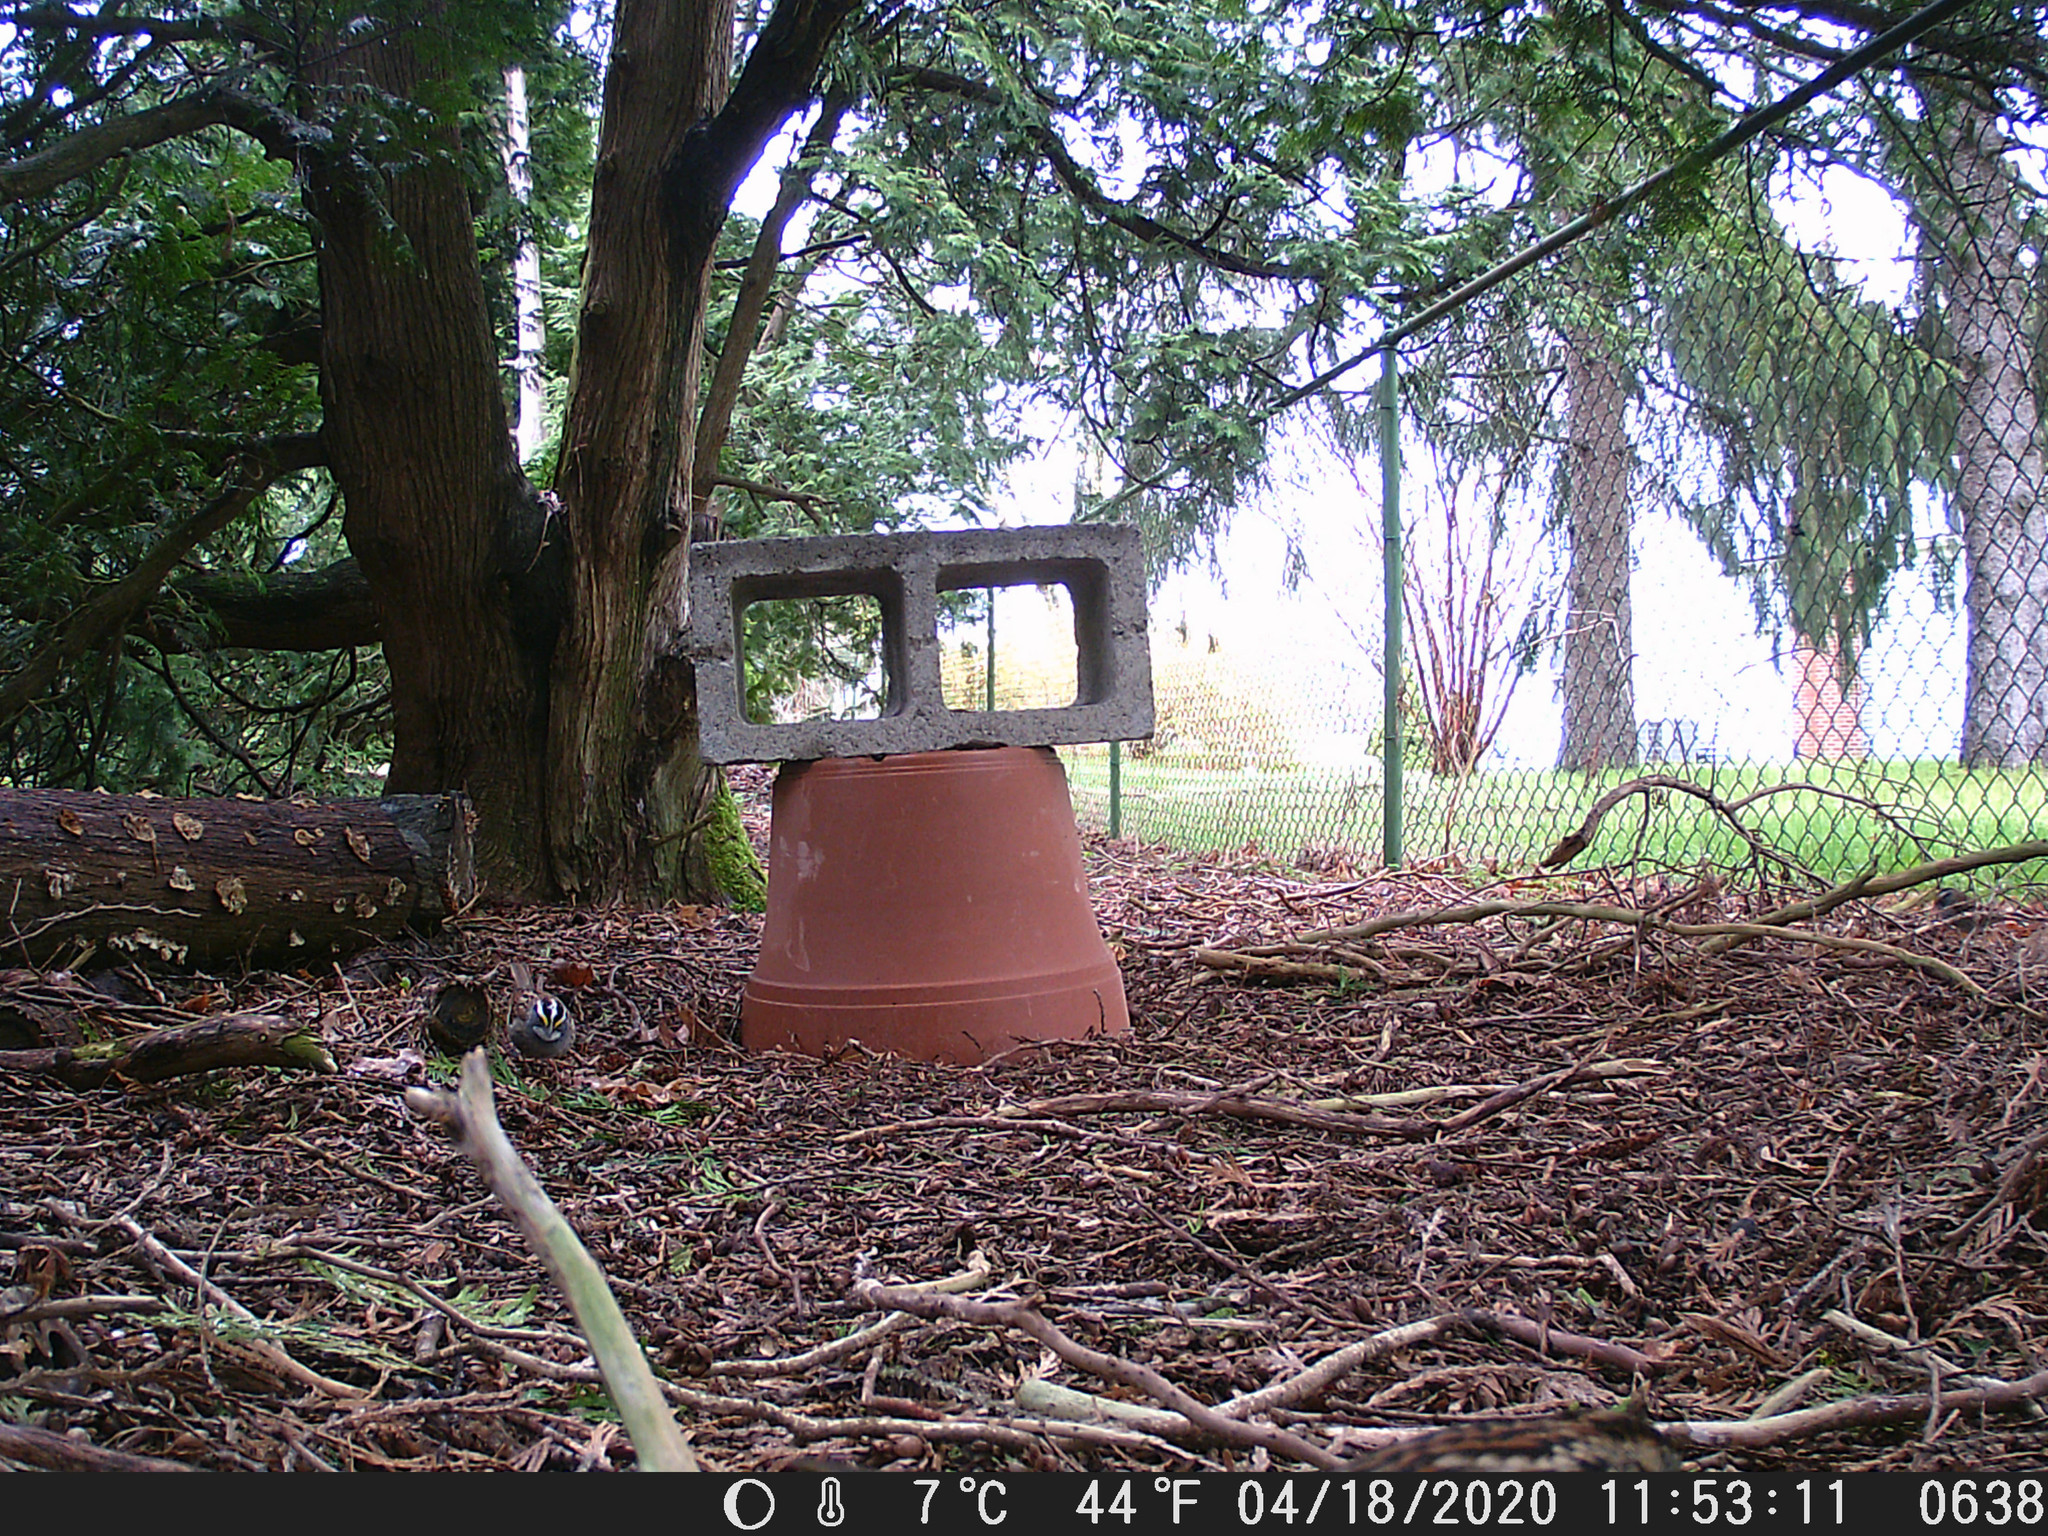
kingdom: Animalia
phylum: Chordata
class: Aves
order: Passeriformes
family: Passerellidae
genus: Zonotrichia
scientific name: Zonotrichia albicollis
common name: White-throated sparrow
